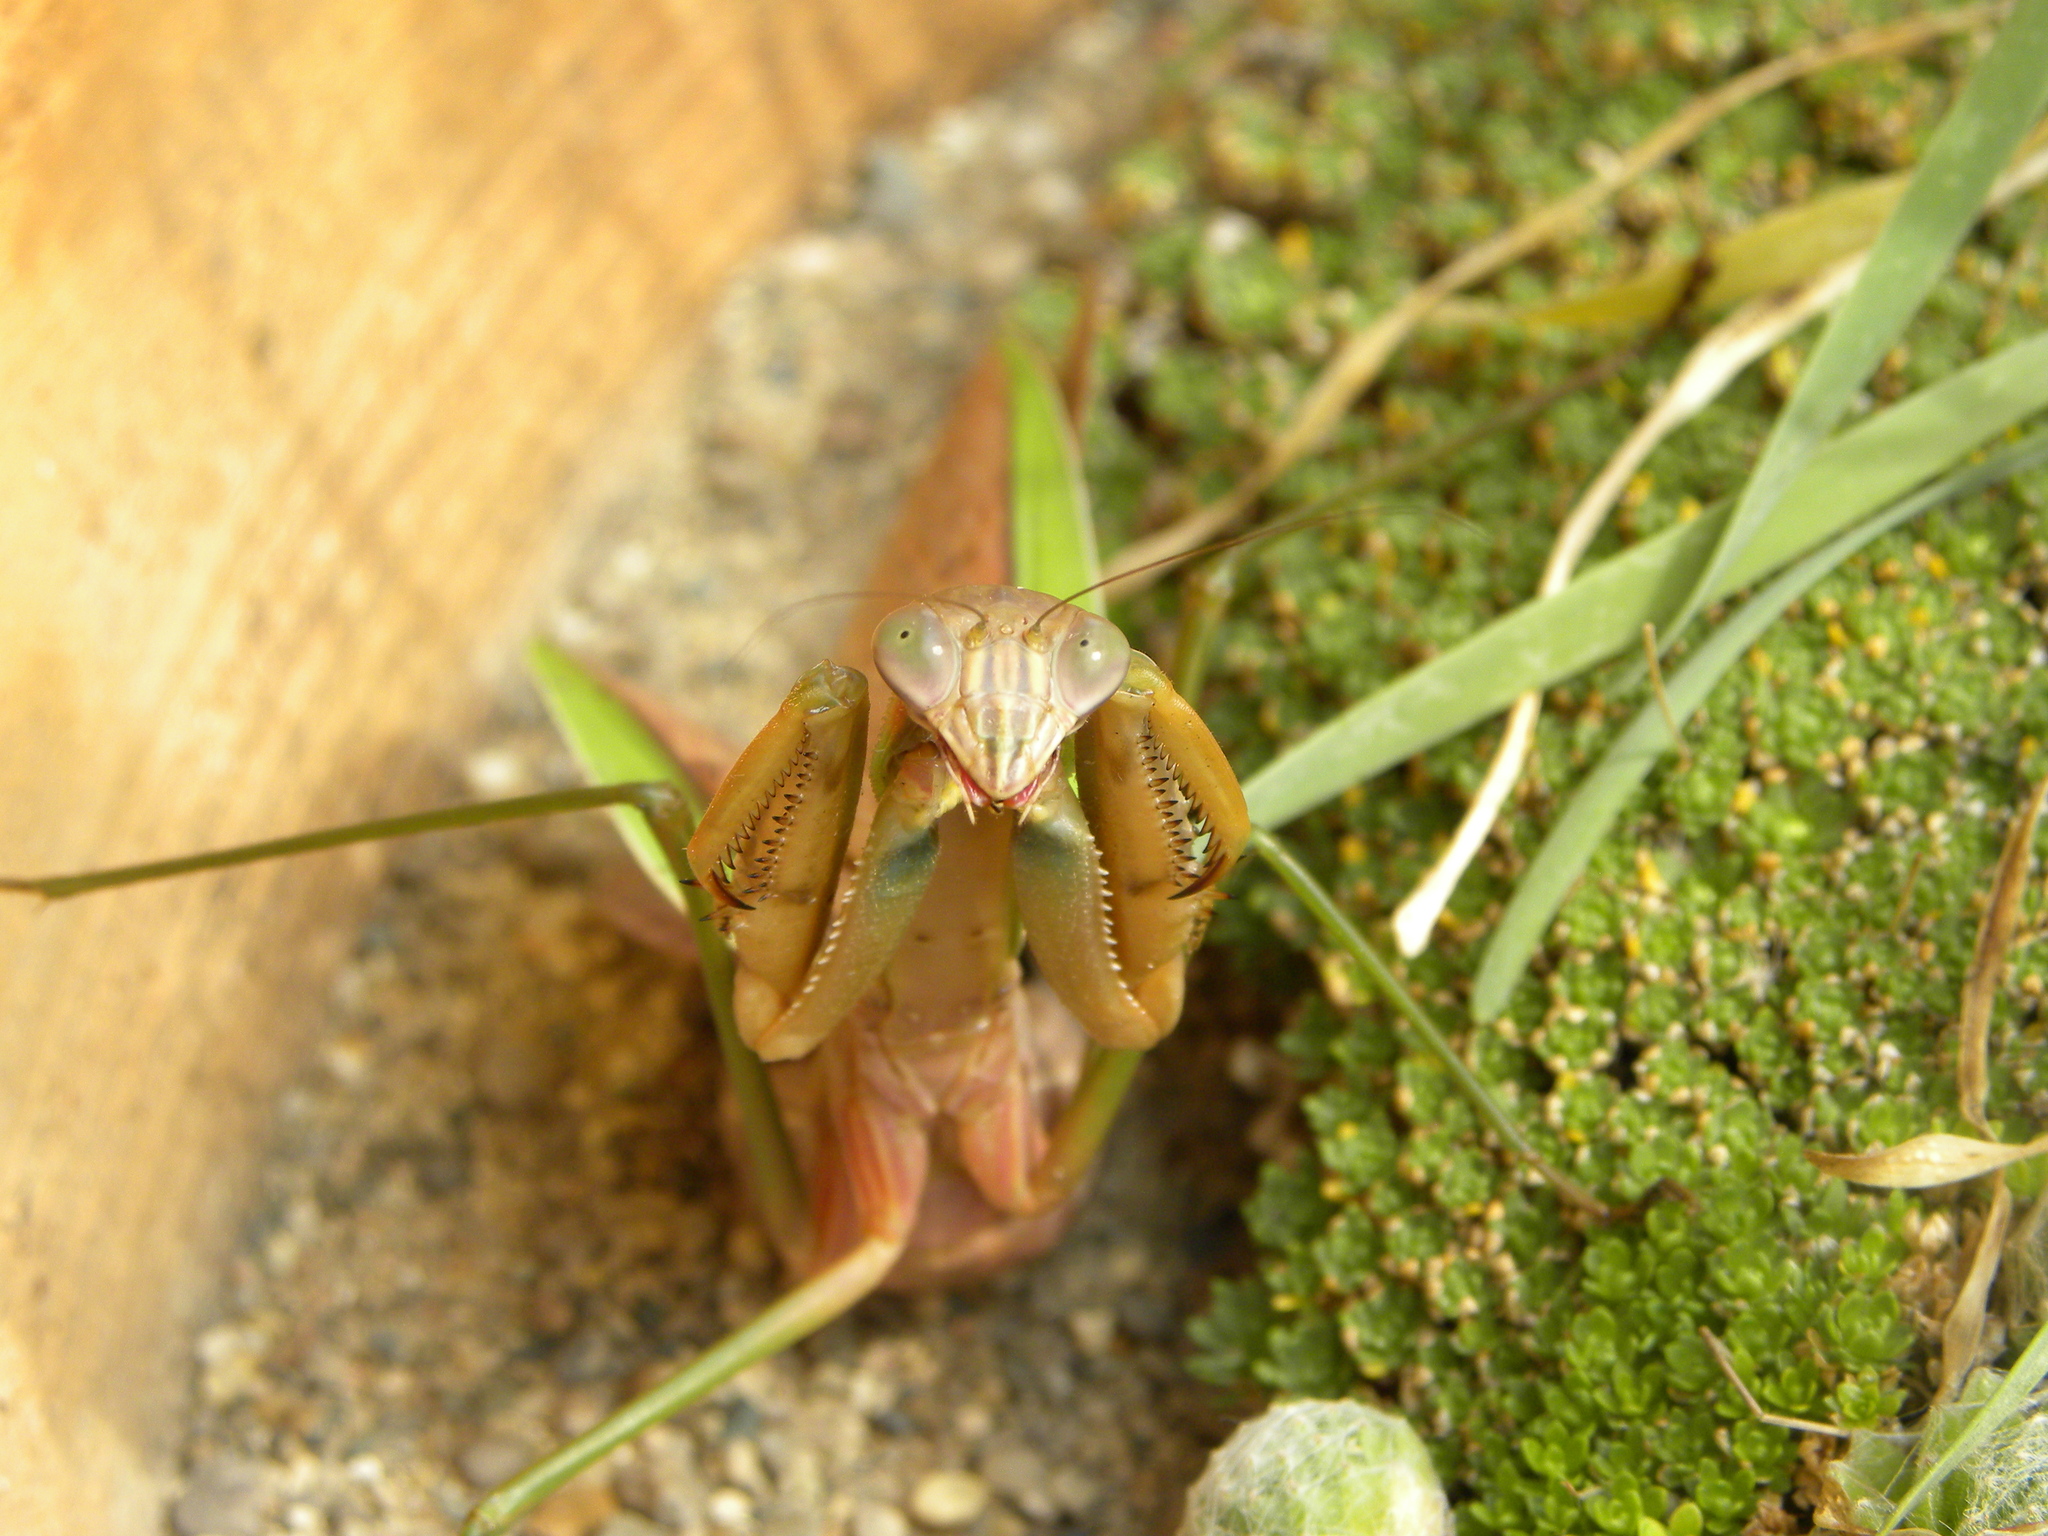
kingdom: Animalia
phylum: Arthropoda
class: Insecta
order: Mantodea
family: Mantidae
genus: Tenodera
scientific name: Tenodera sinensis
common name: Chinese mantis
